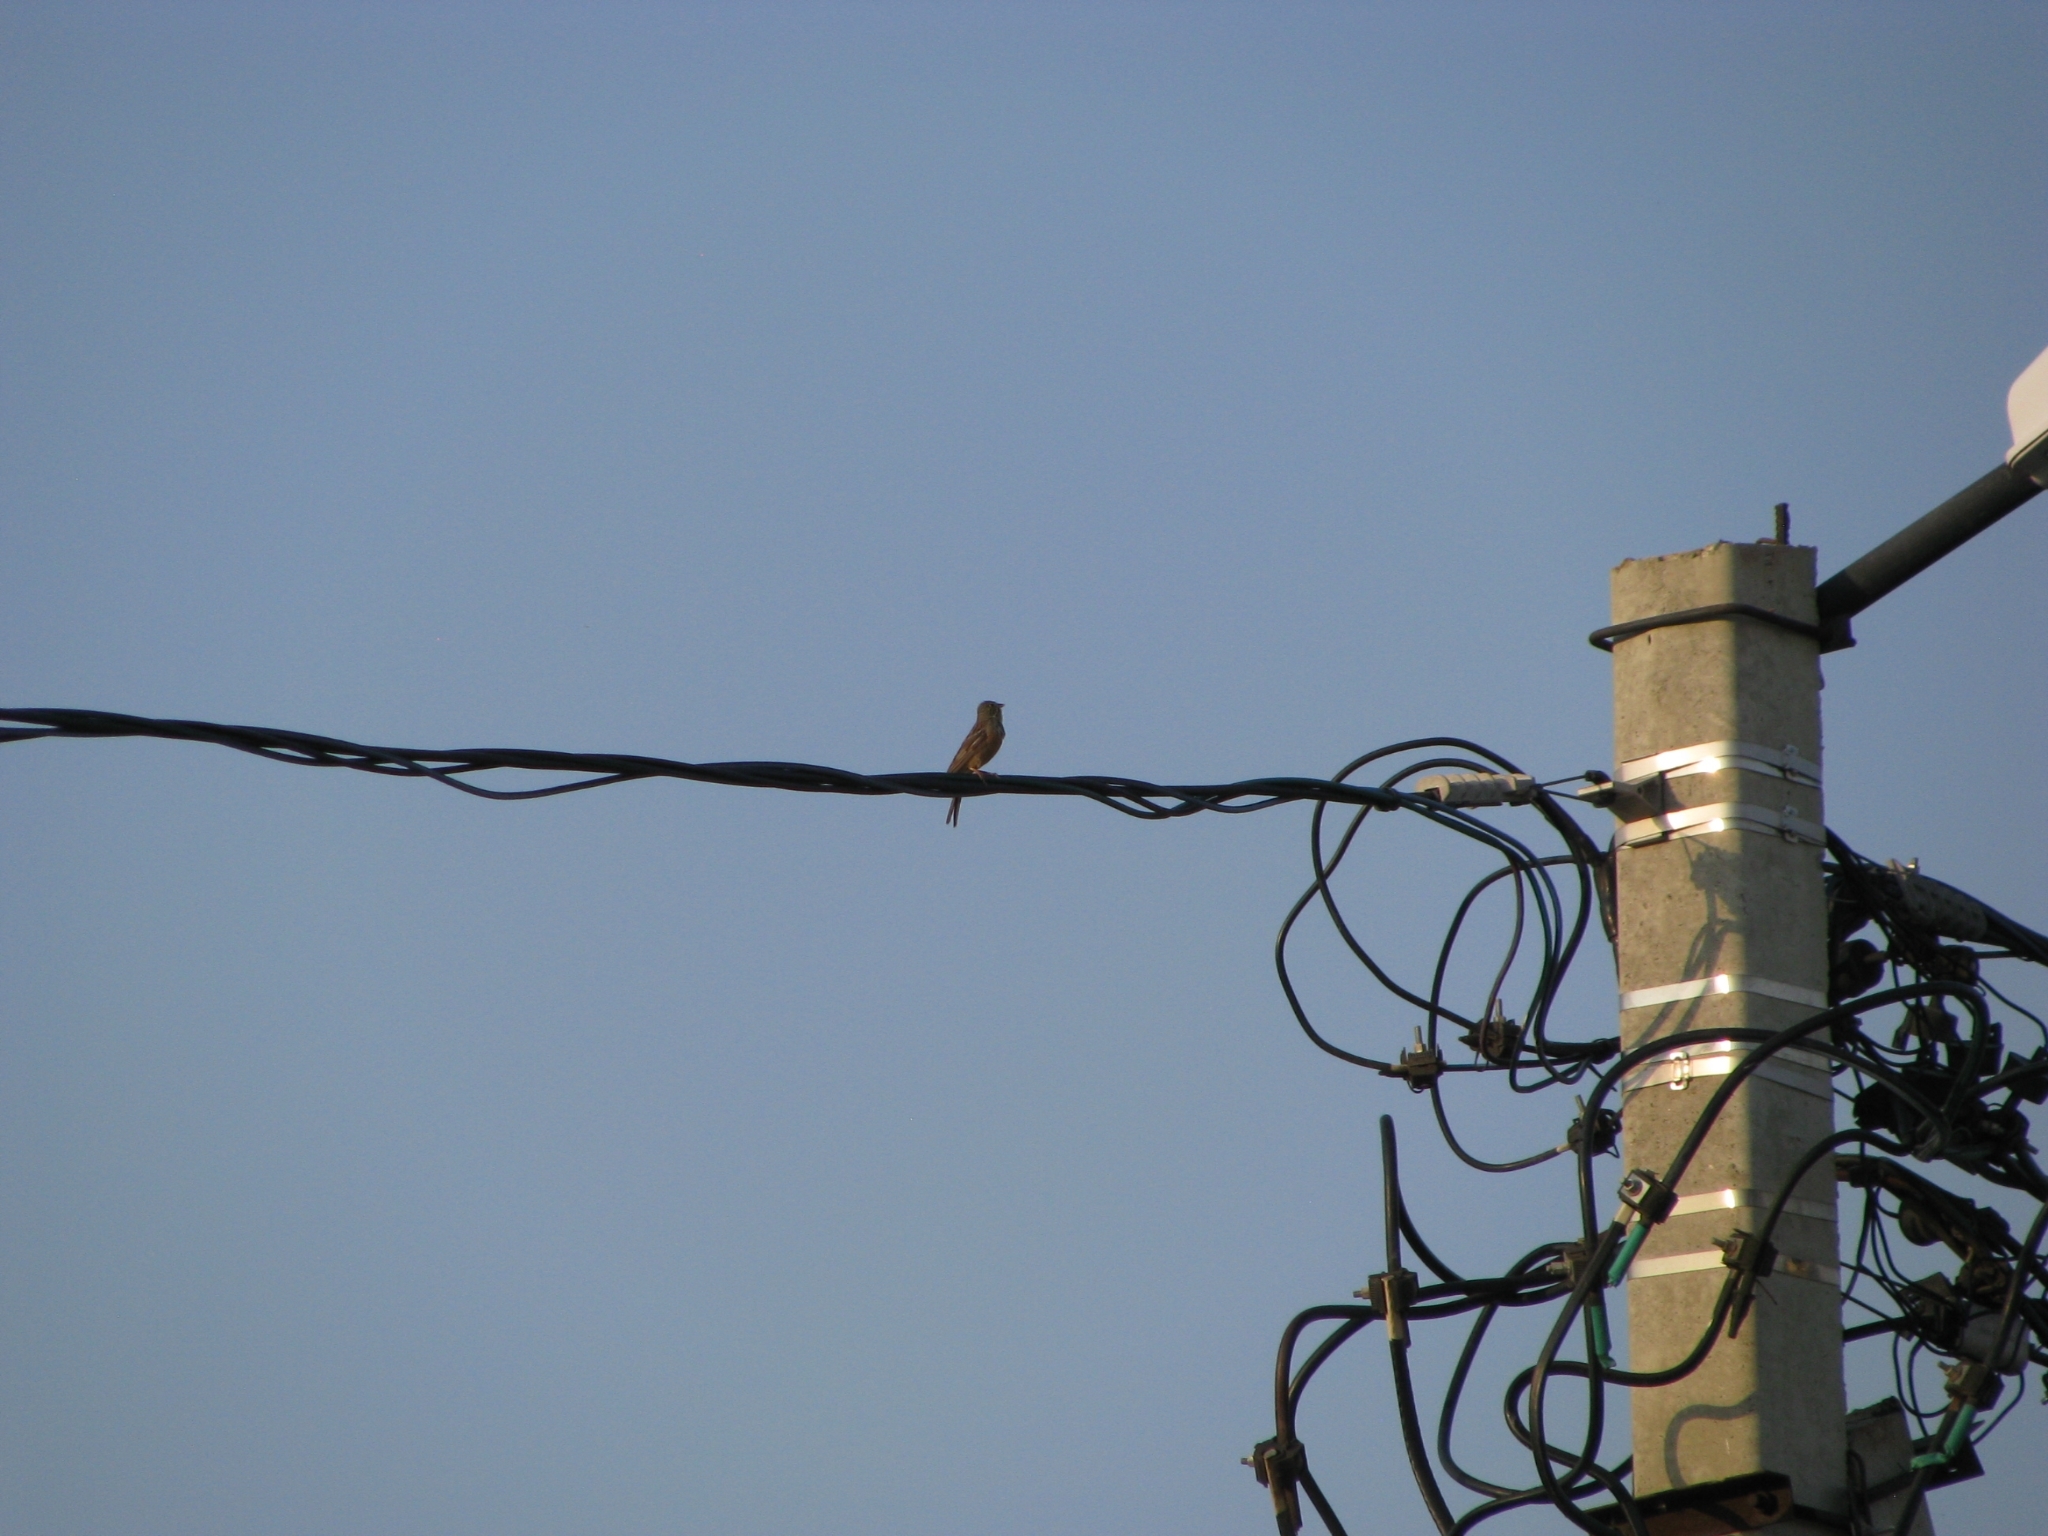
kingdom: Animalia
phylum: Chordata
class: Aves
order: Passeriformes
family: Emberizidae
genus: Emberiza
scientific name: Emberiza hortulana
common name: Ortolan bunting
